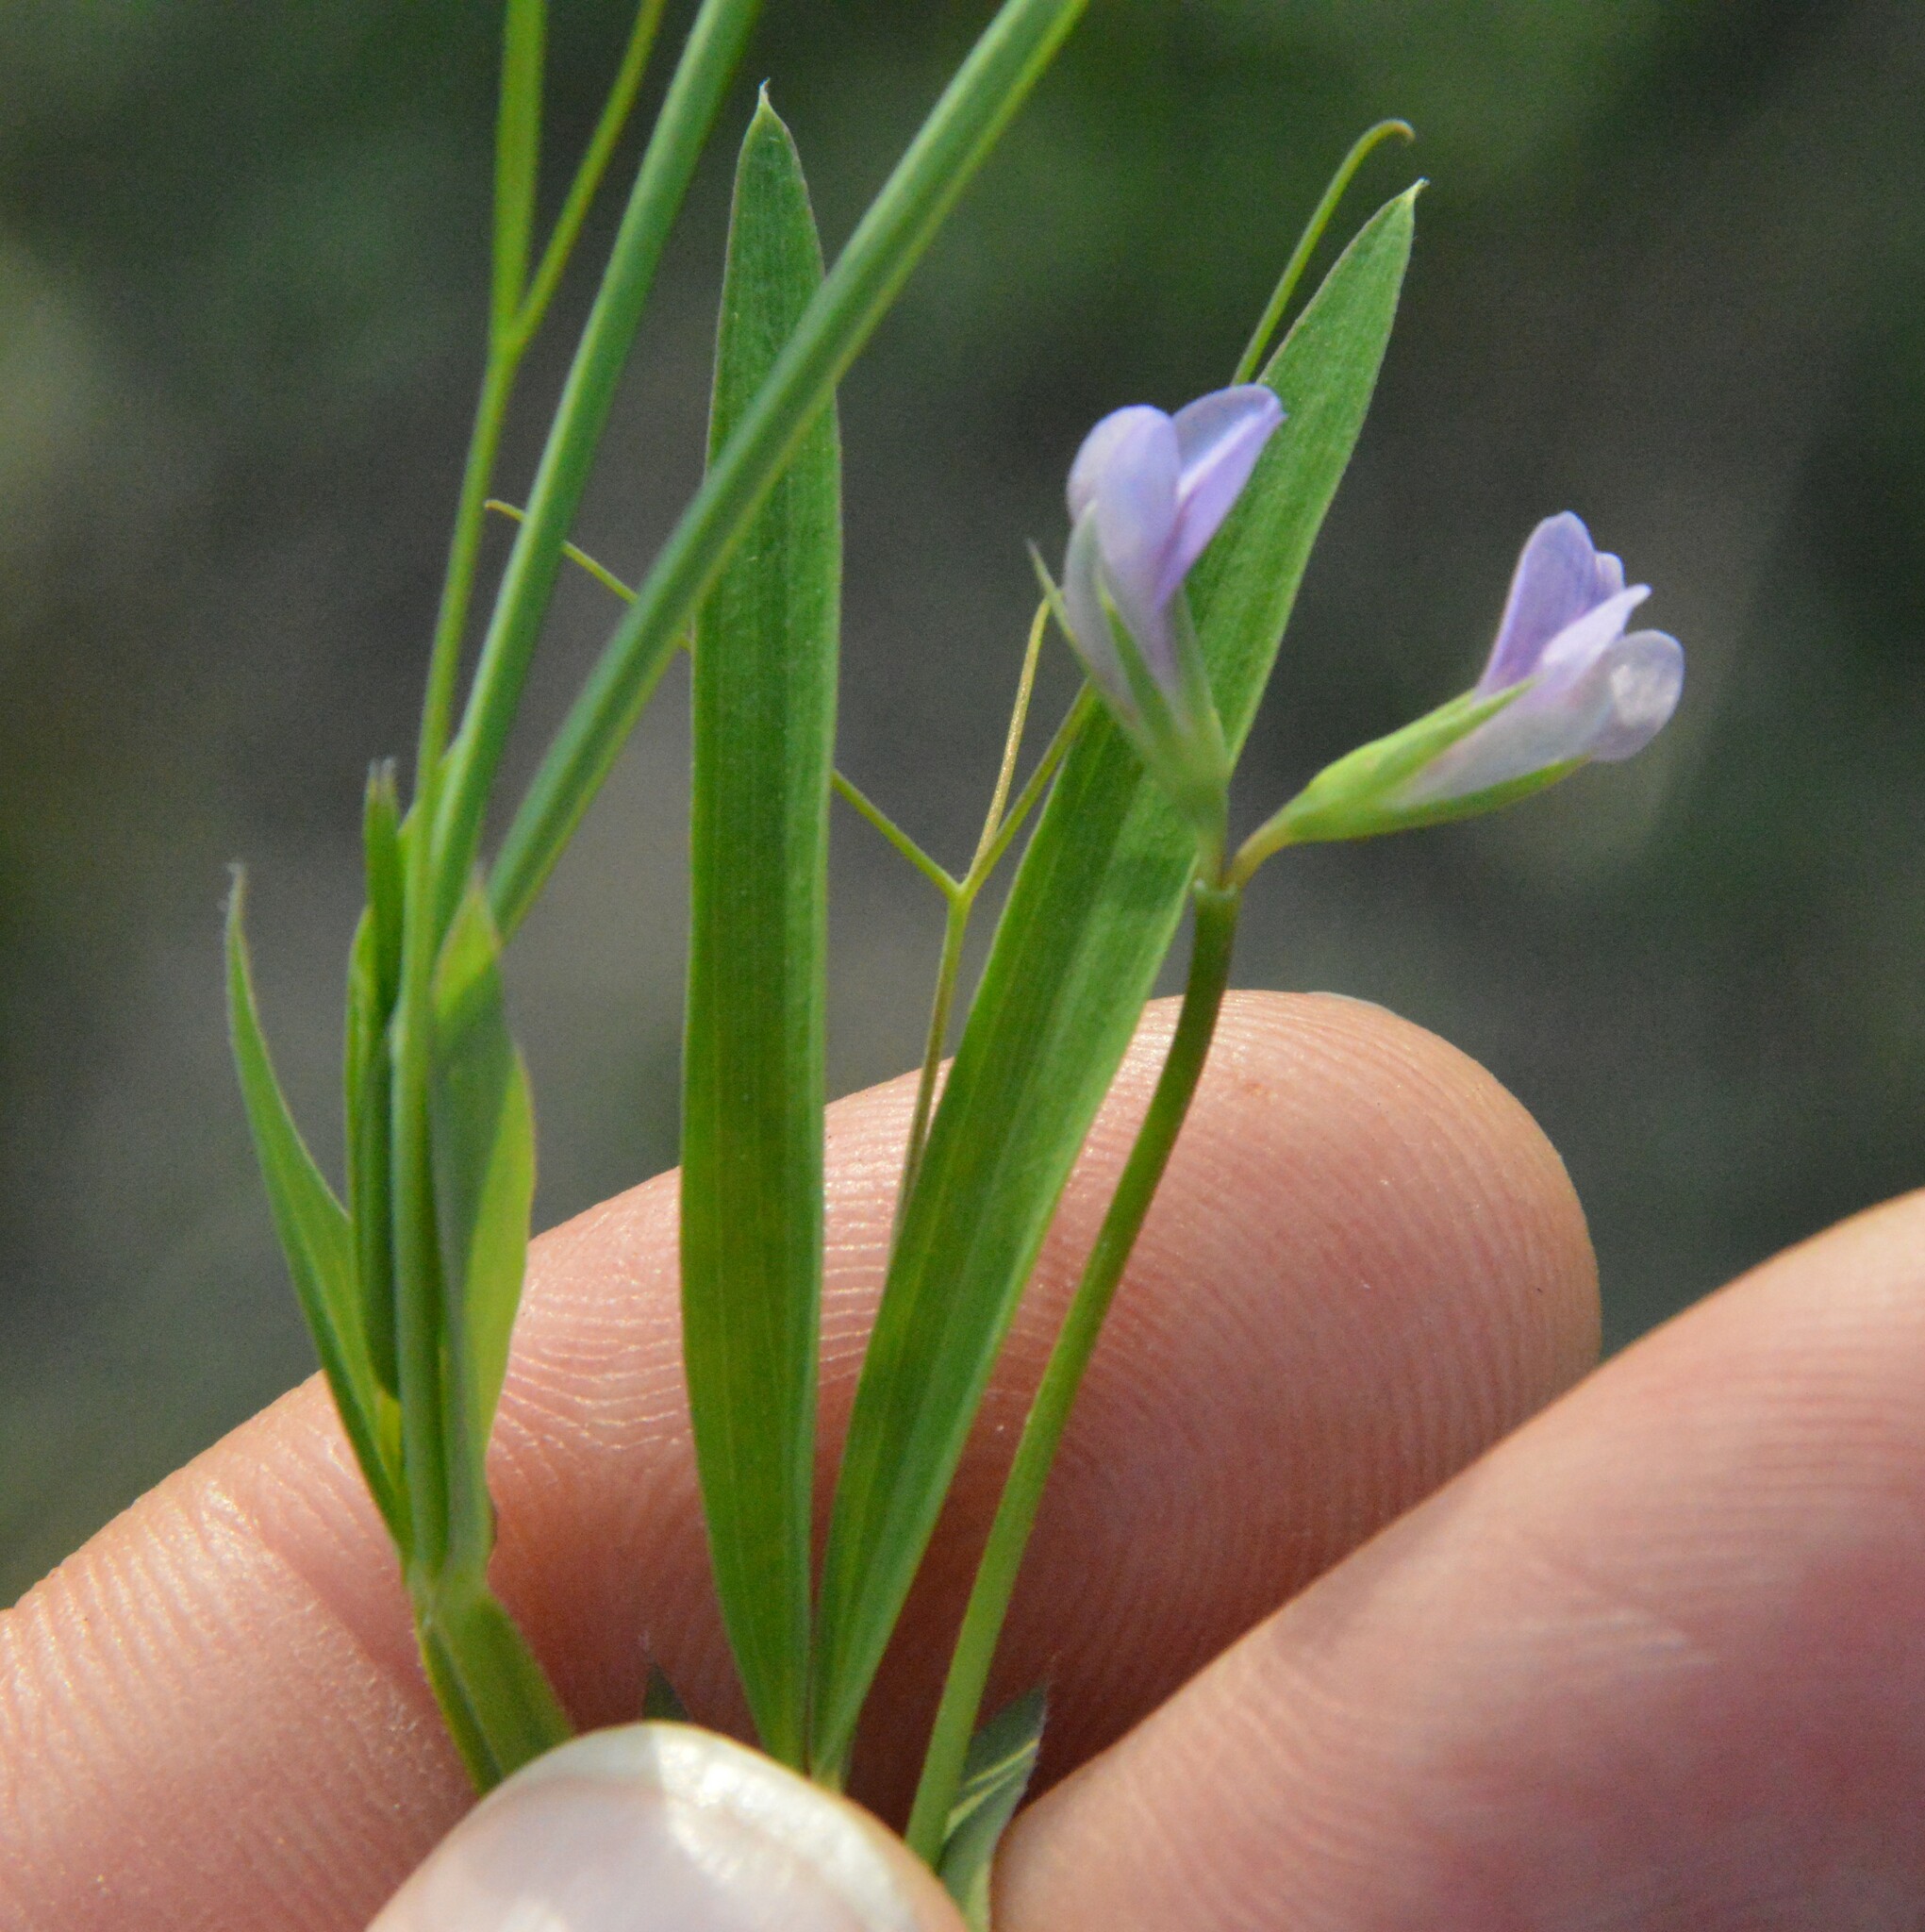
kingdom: Plantae
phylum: Tracheophyta
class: Magnoliopsida
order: Fabales
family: Fabaceae
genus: Lathyrus
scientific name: Lathyrus pusillus
